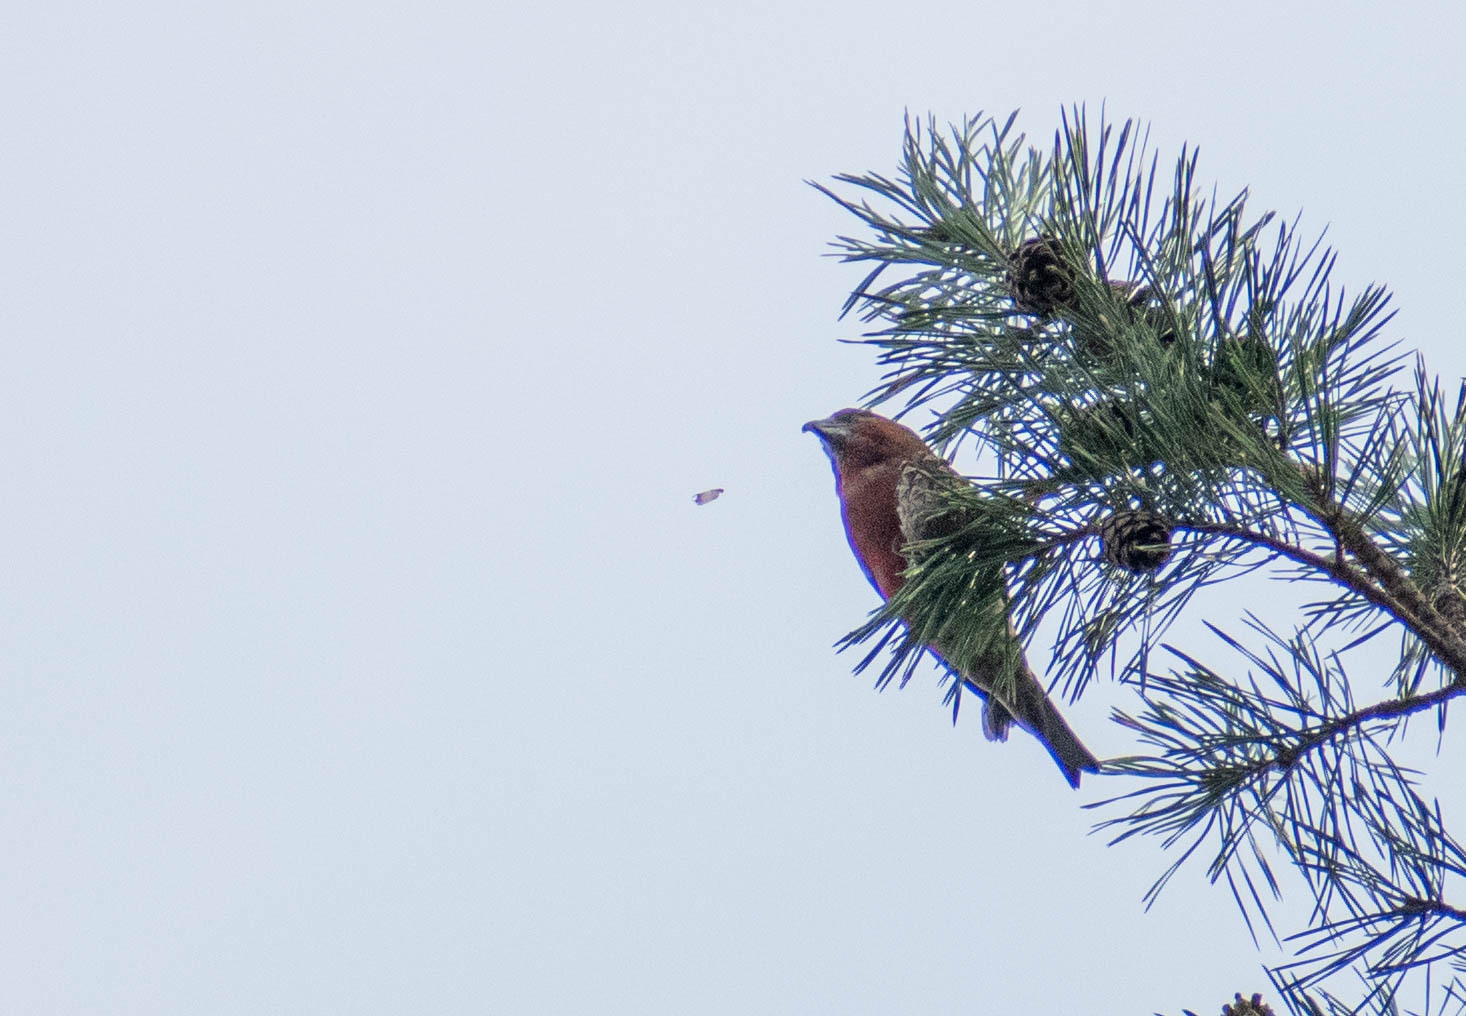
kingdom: Animalia
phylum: Chordata
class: Aves
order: Passeriformes
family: Fringillidae
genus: Loxia
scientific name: Loxia curvirostra
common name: Red crossbill
